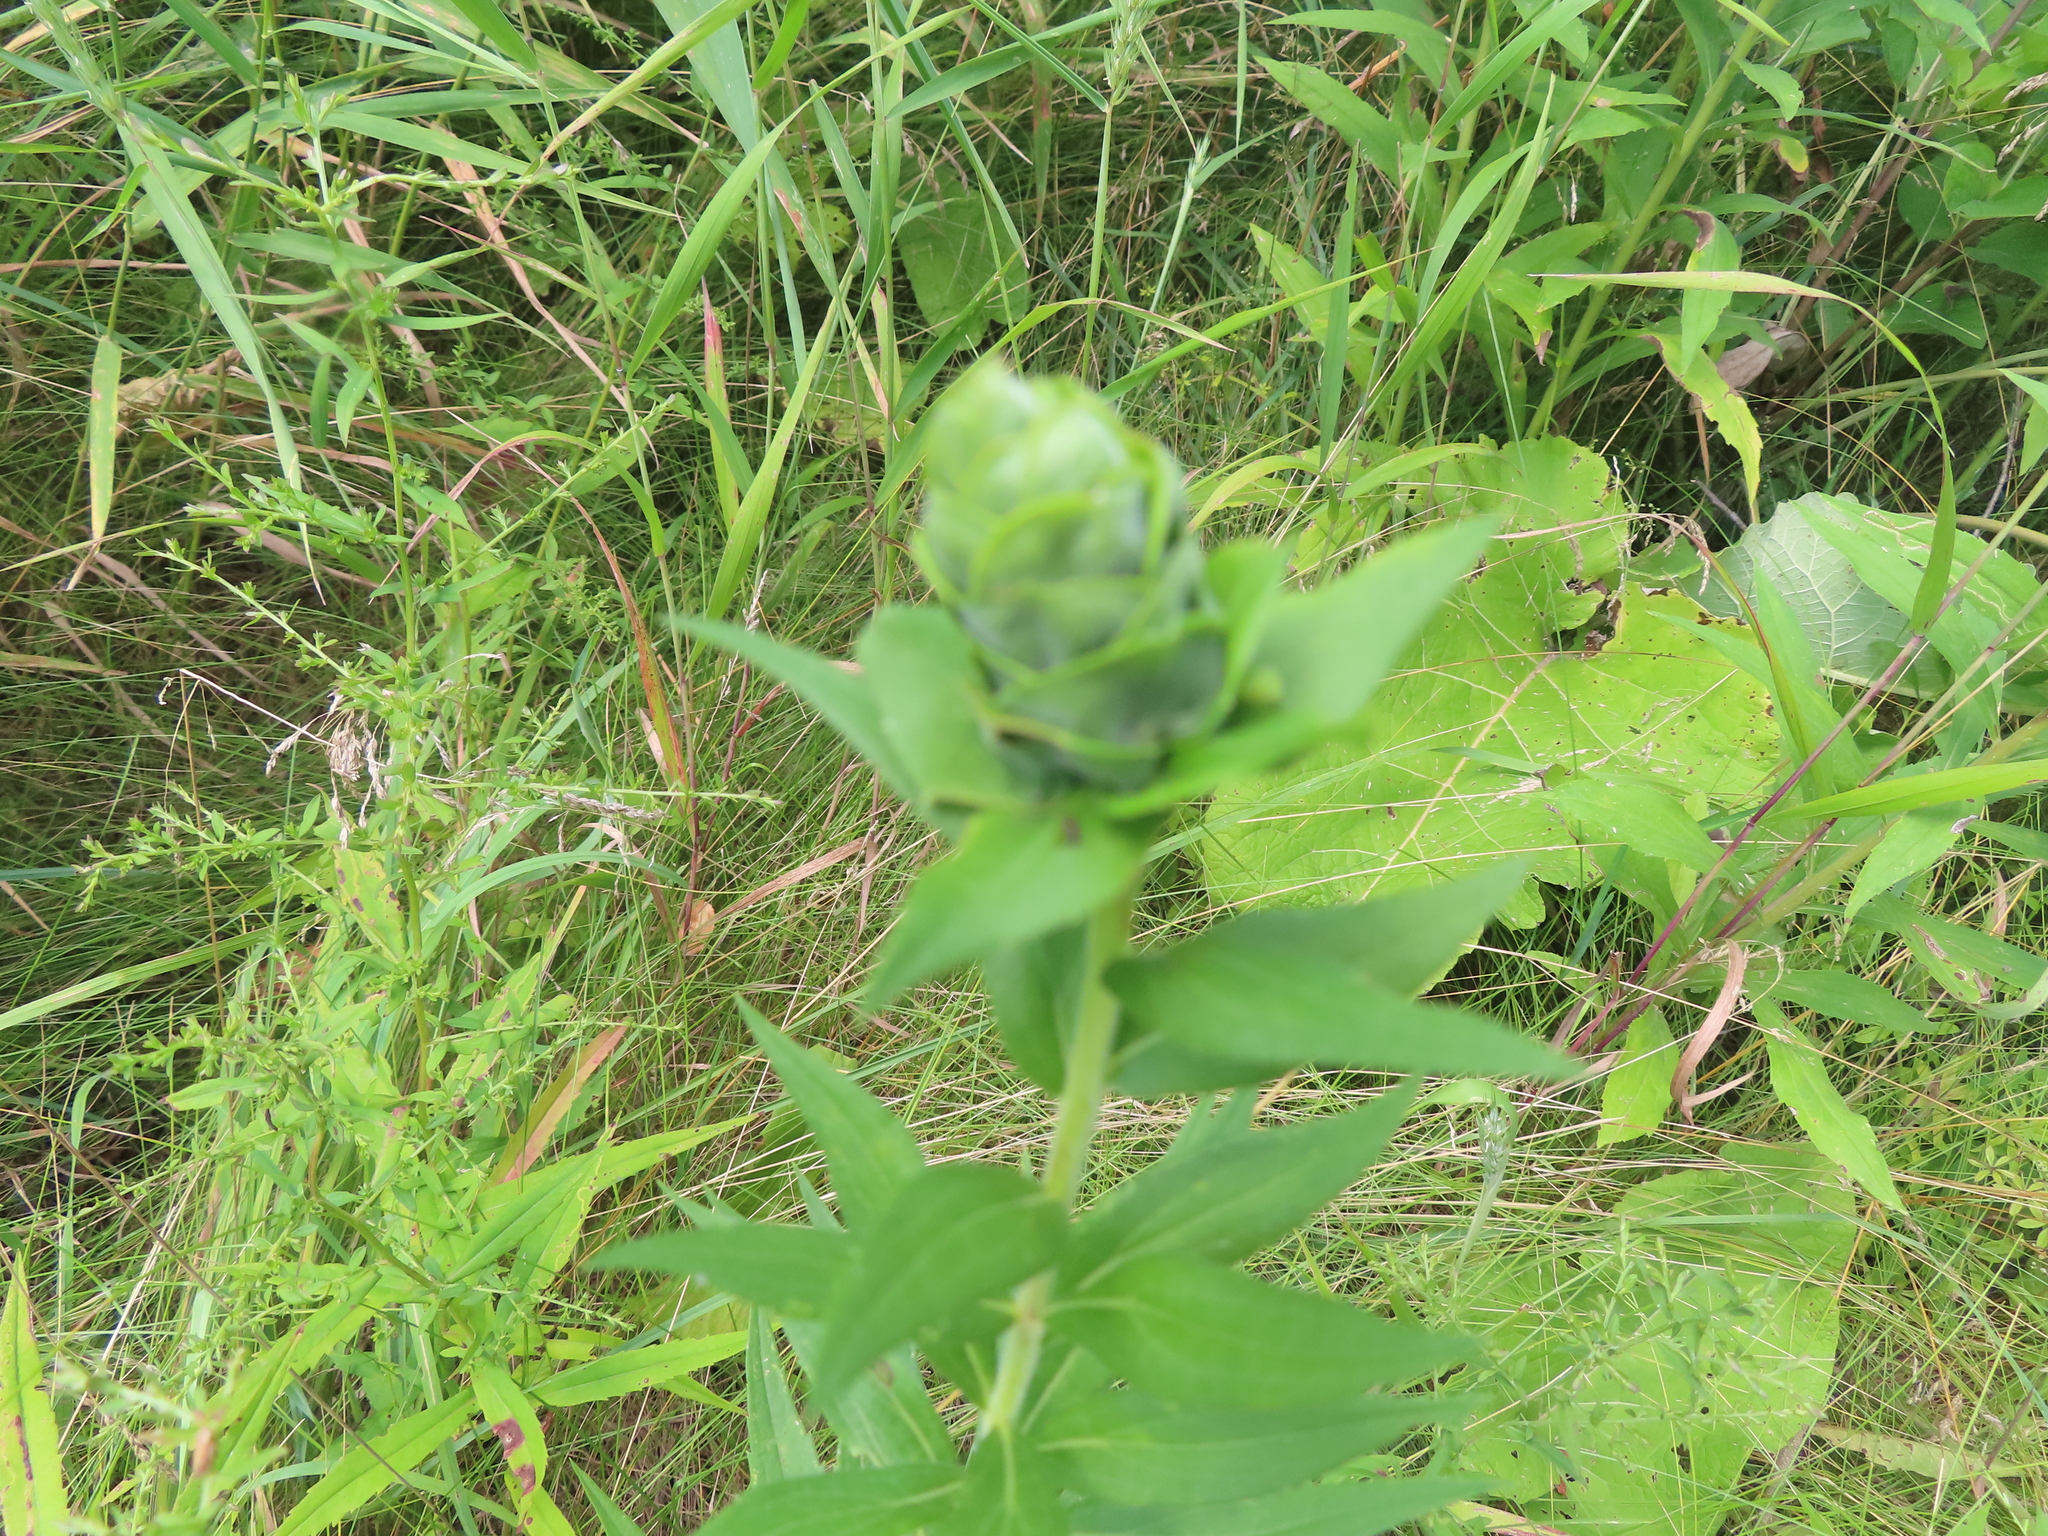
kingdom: Animalia
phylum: Arthropoda
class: Insecta
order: Diptera
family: Cecidomyiidae
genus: Rhopalomyia
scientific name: Rhopalomyia solidaginis
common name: Goldenrod bunch gall midge
